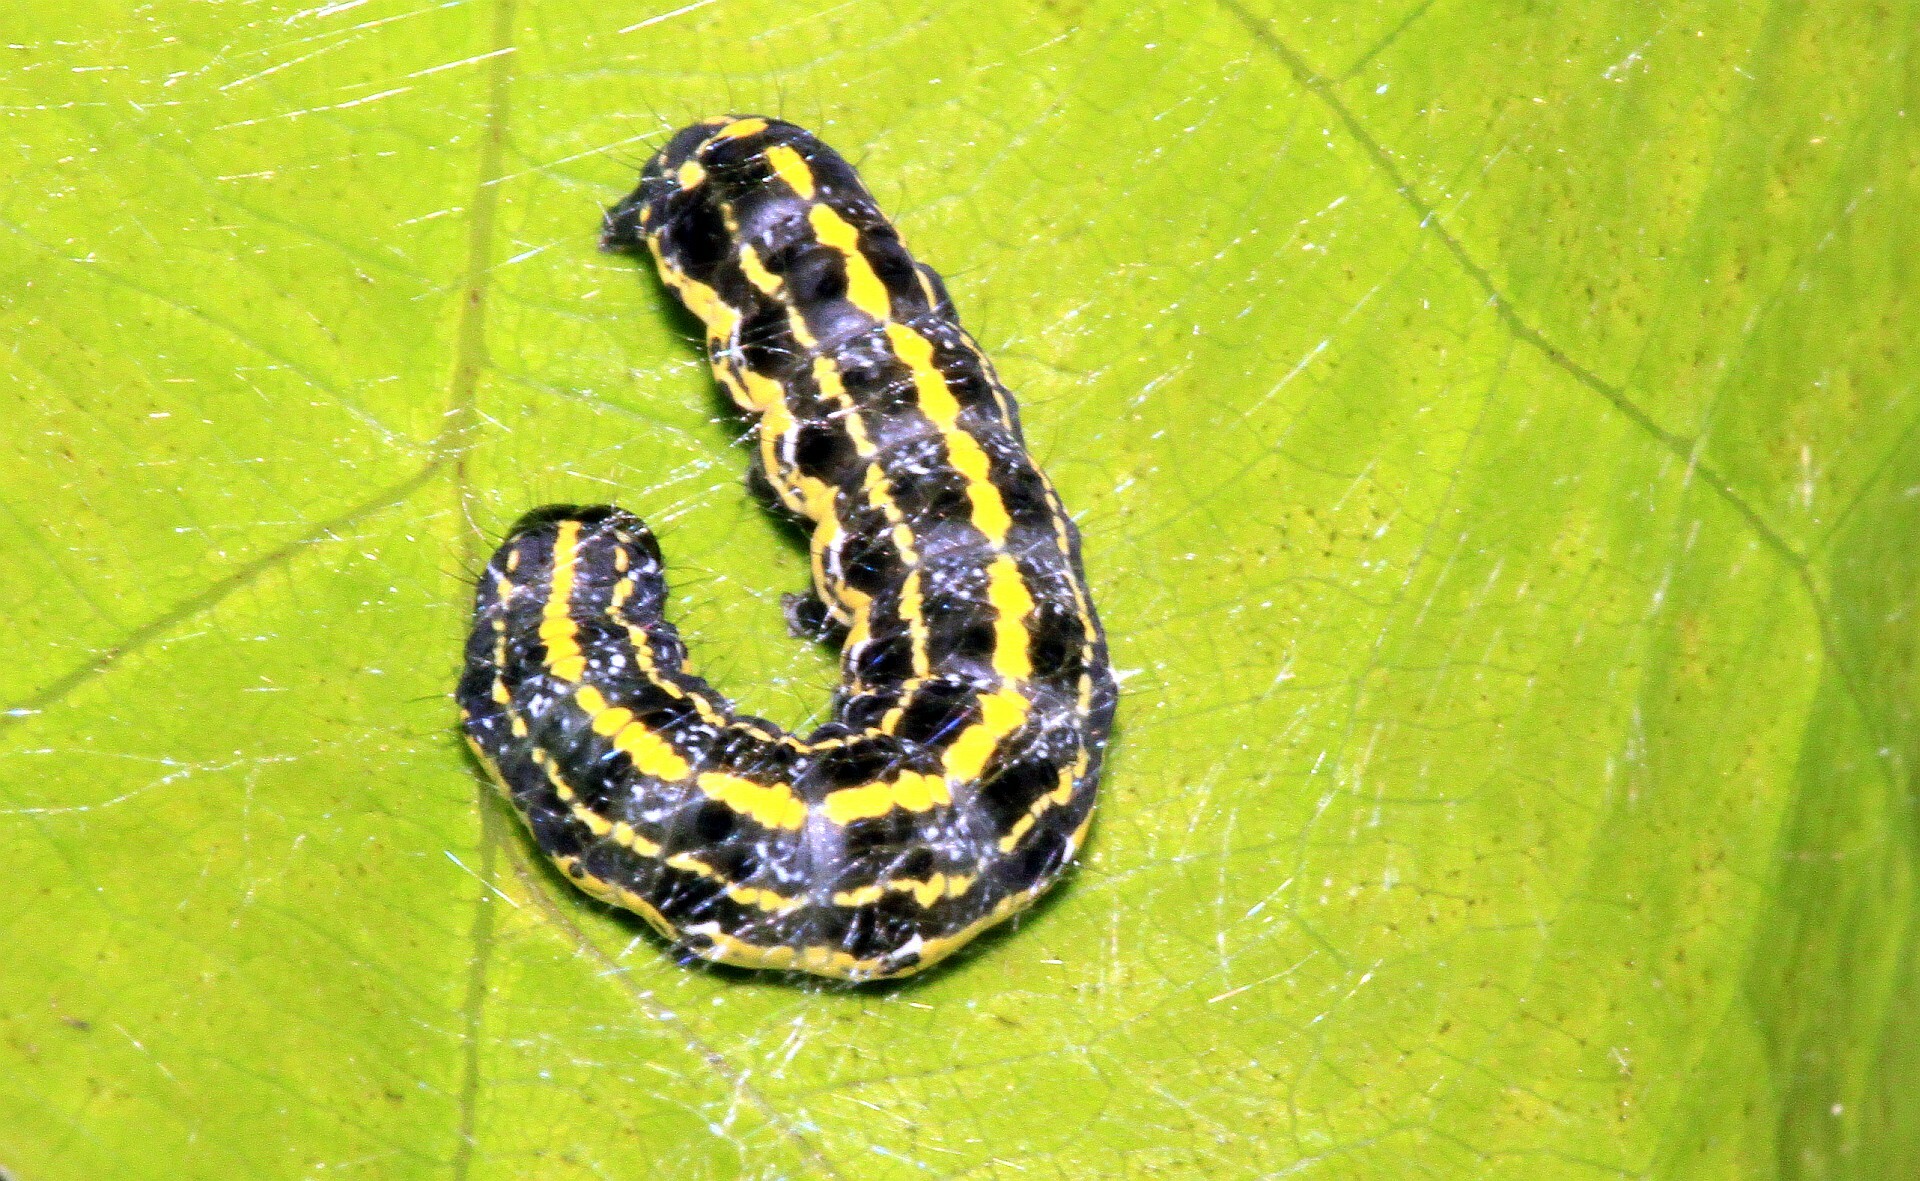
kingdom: Animalia
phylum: Arthropoda
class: Insecta
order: Lepidoptera
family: Noctuidae
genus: Orthosia
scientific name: Orthosia miniosa
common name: Blossom underwing
